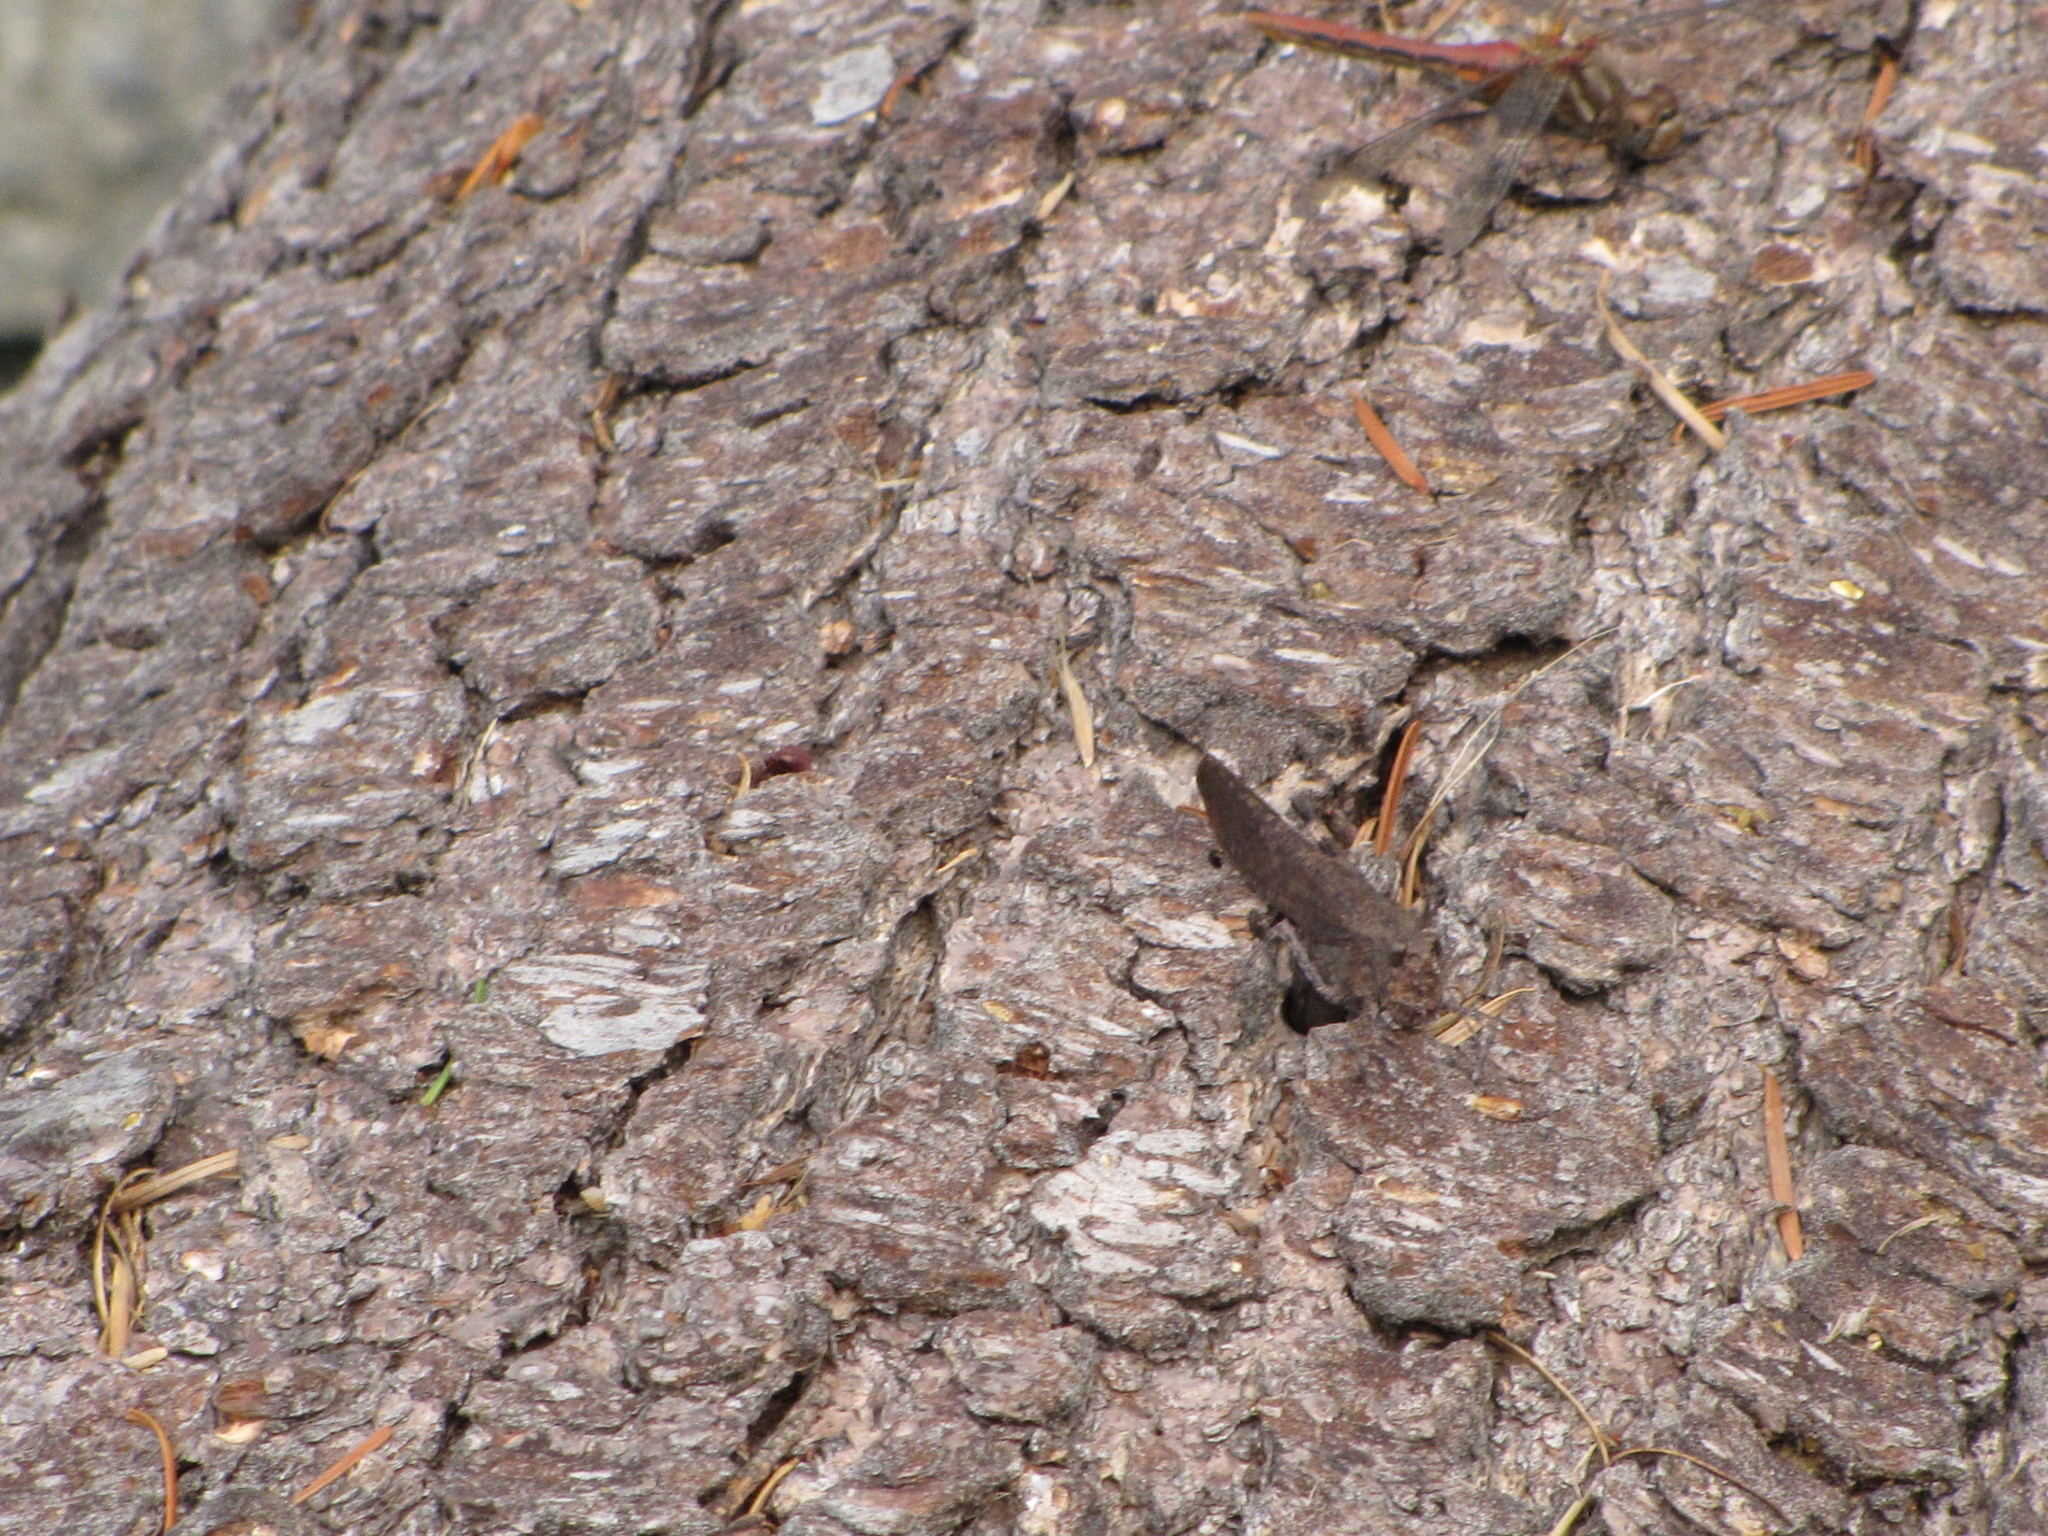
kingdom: Animalia
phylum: Arthropoda
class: Insecta
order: Orthoptera
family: Acrididae
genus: Trimerotropis
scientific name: Trimerotropis verruculata
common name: Crackling forest grasshopper
